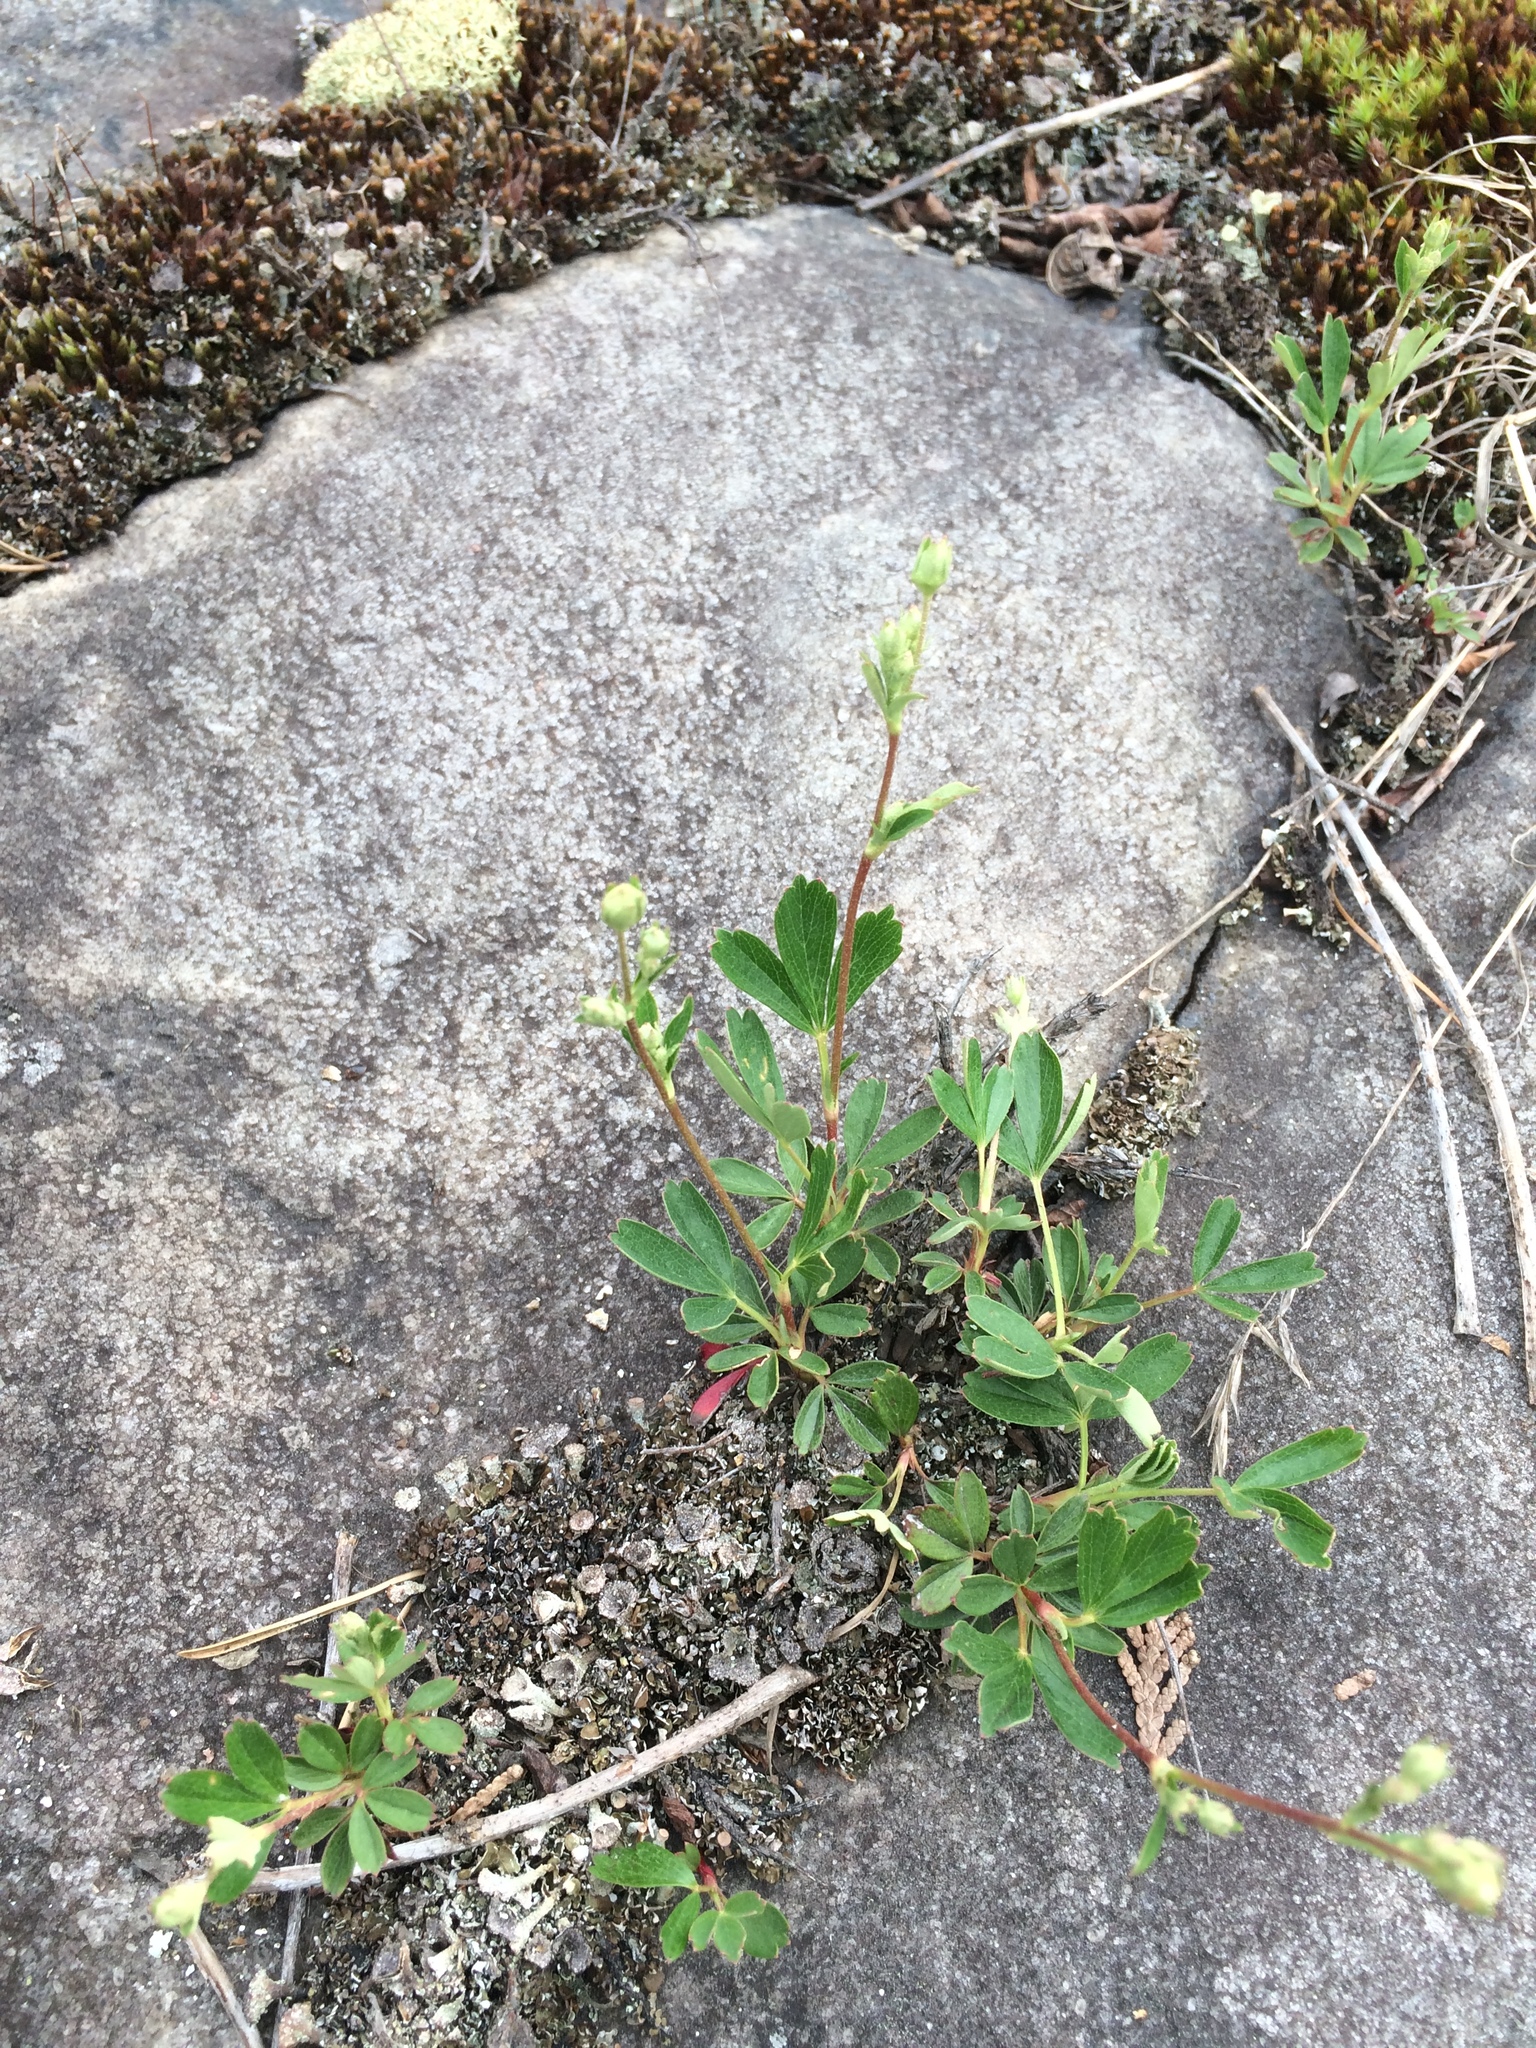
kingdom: Plantae
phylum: Tracheophyta
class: Magnoliopsida
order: Rosales
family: Rosaceae
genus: Sibbaldia
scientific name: Sibbaldia tridentata
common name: Three-toothed cinquefoil
